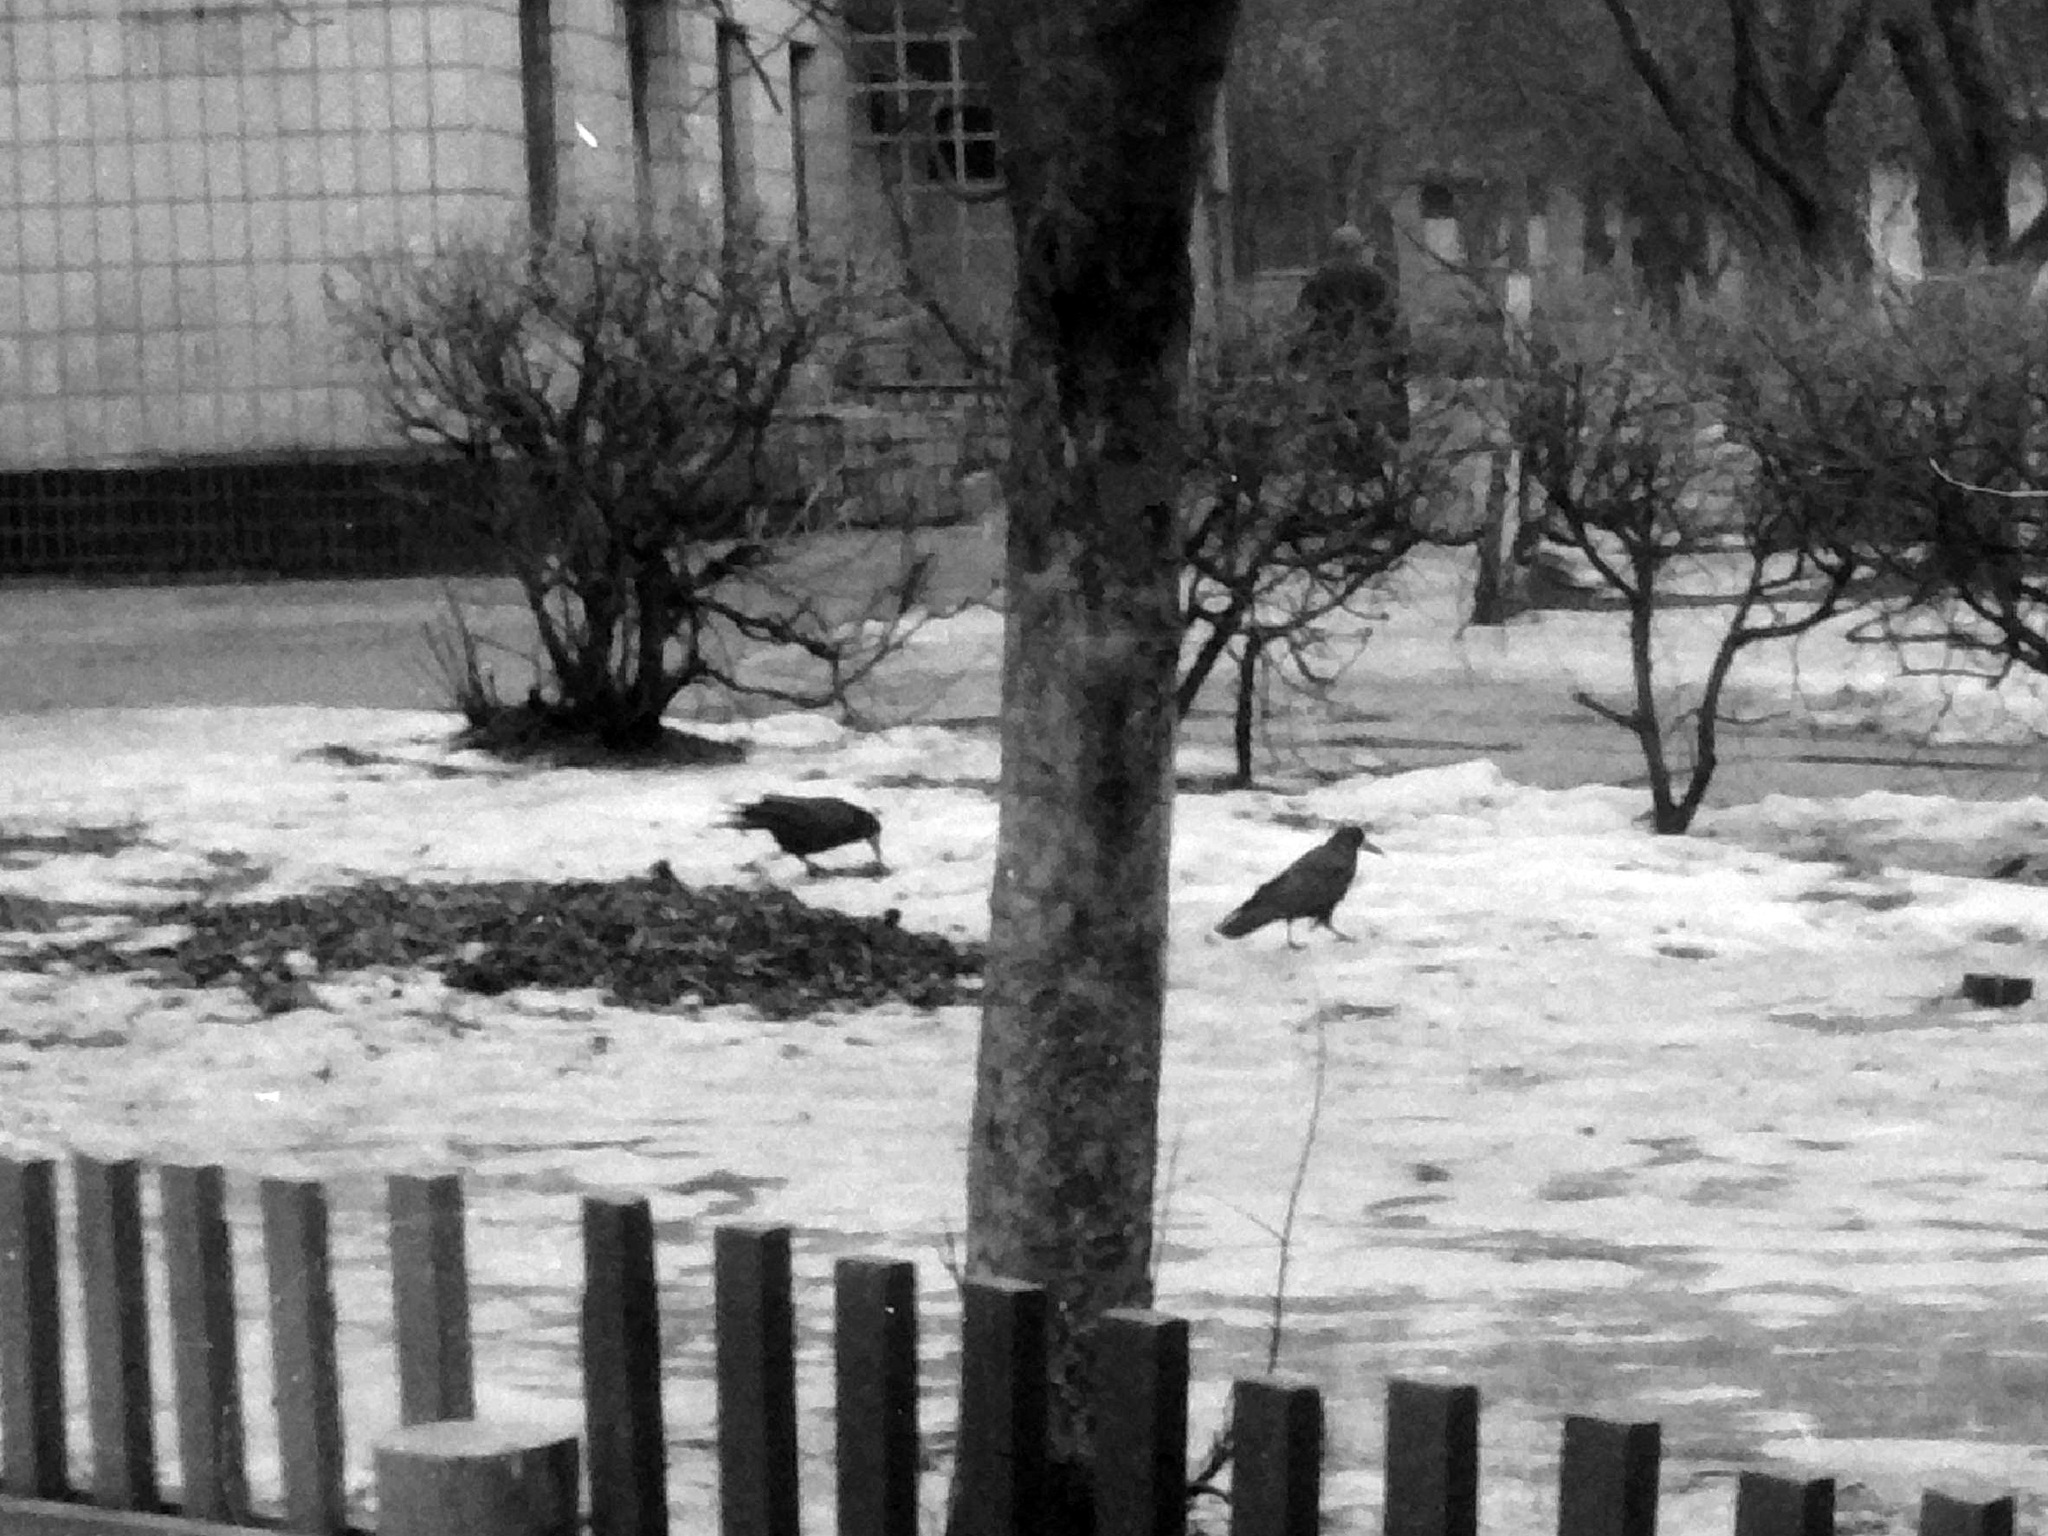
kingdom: Animalia
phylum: Chordata
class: Aves
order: Passeriformes
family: Corvidae
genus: Corvus
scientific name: Corvus frugilegus
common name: Rook
